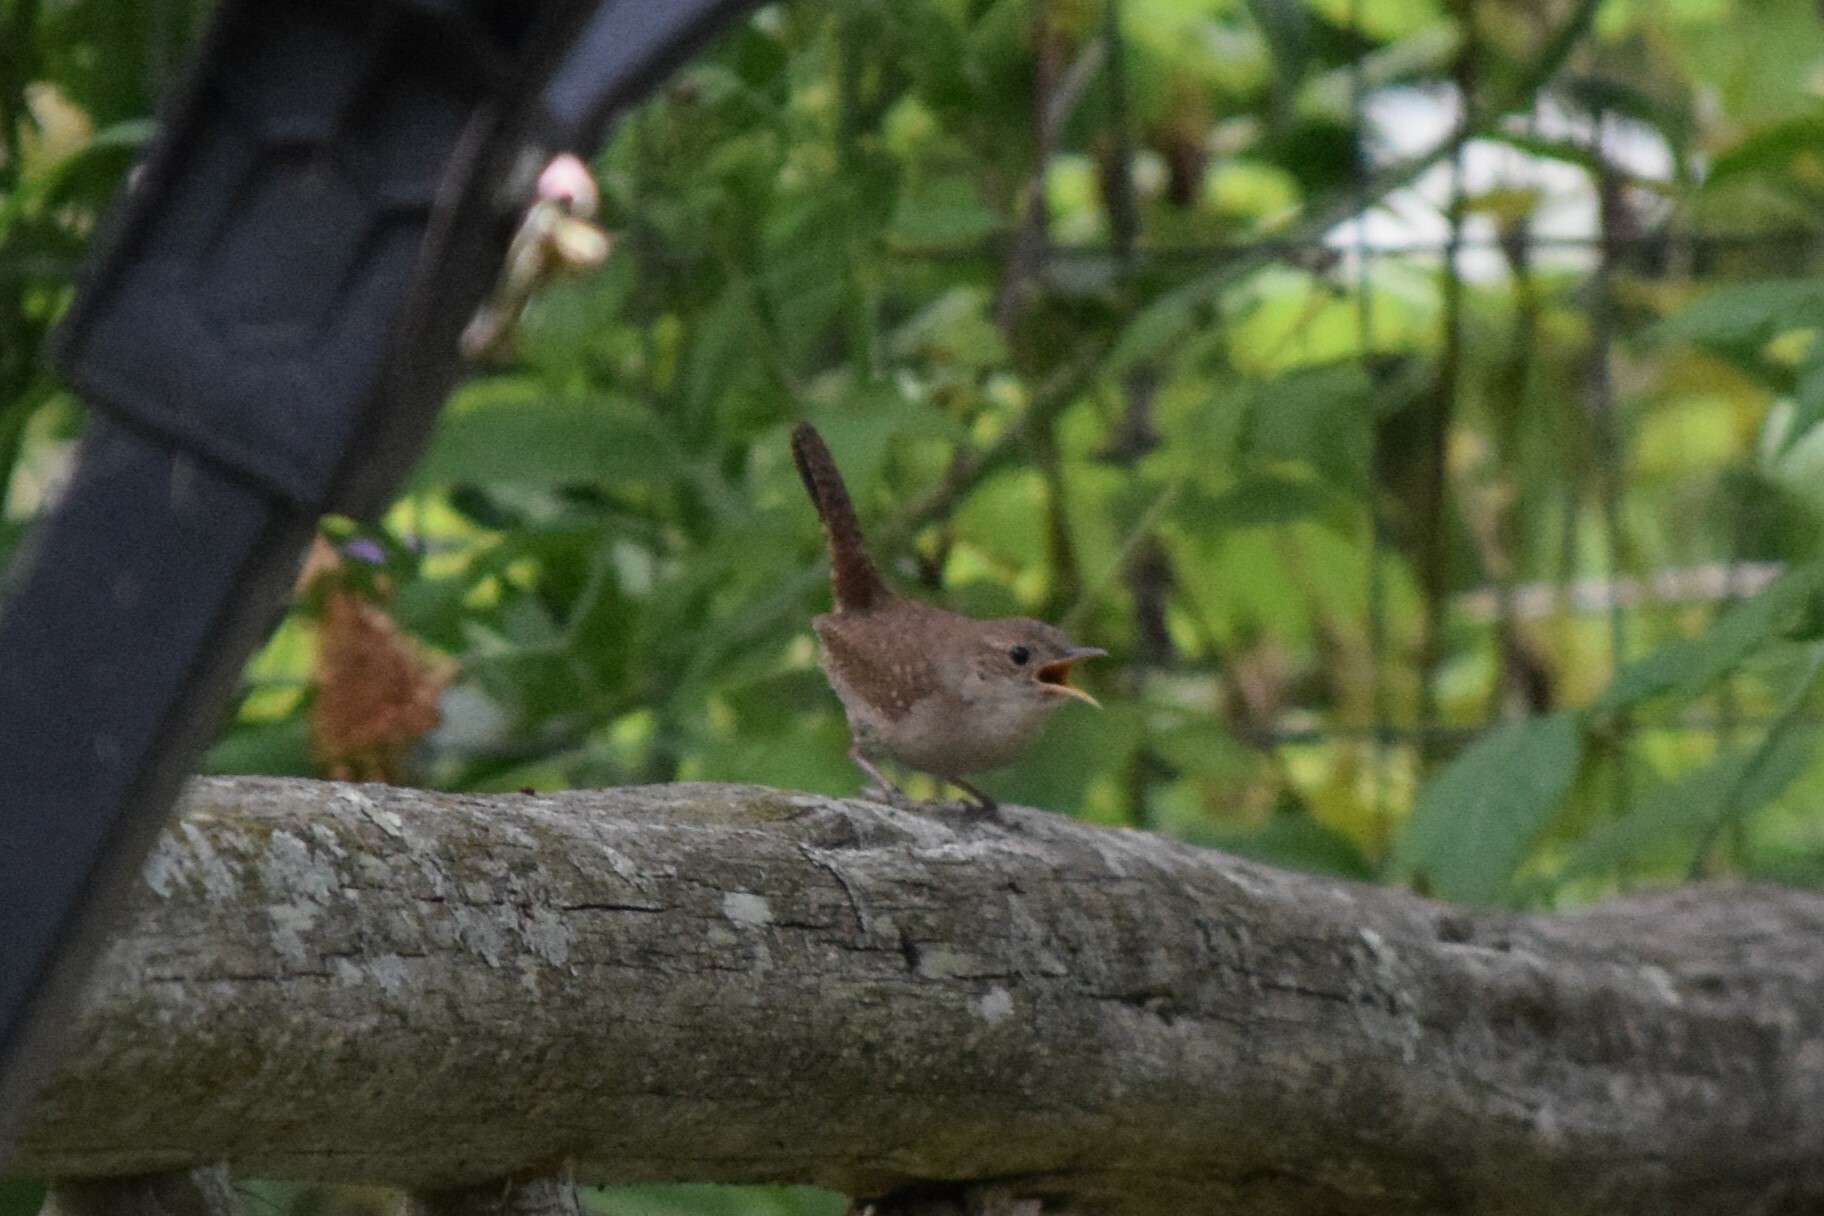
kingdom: Animalia
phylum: Chordata
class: Aves
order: Passeriformes
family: Troglodytidae
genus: Troglodytes
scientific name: Troglodytes aedon
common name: House wren
